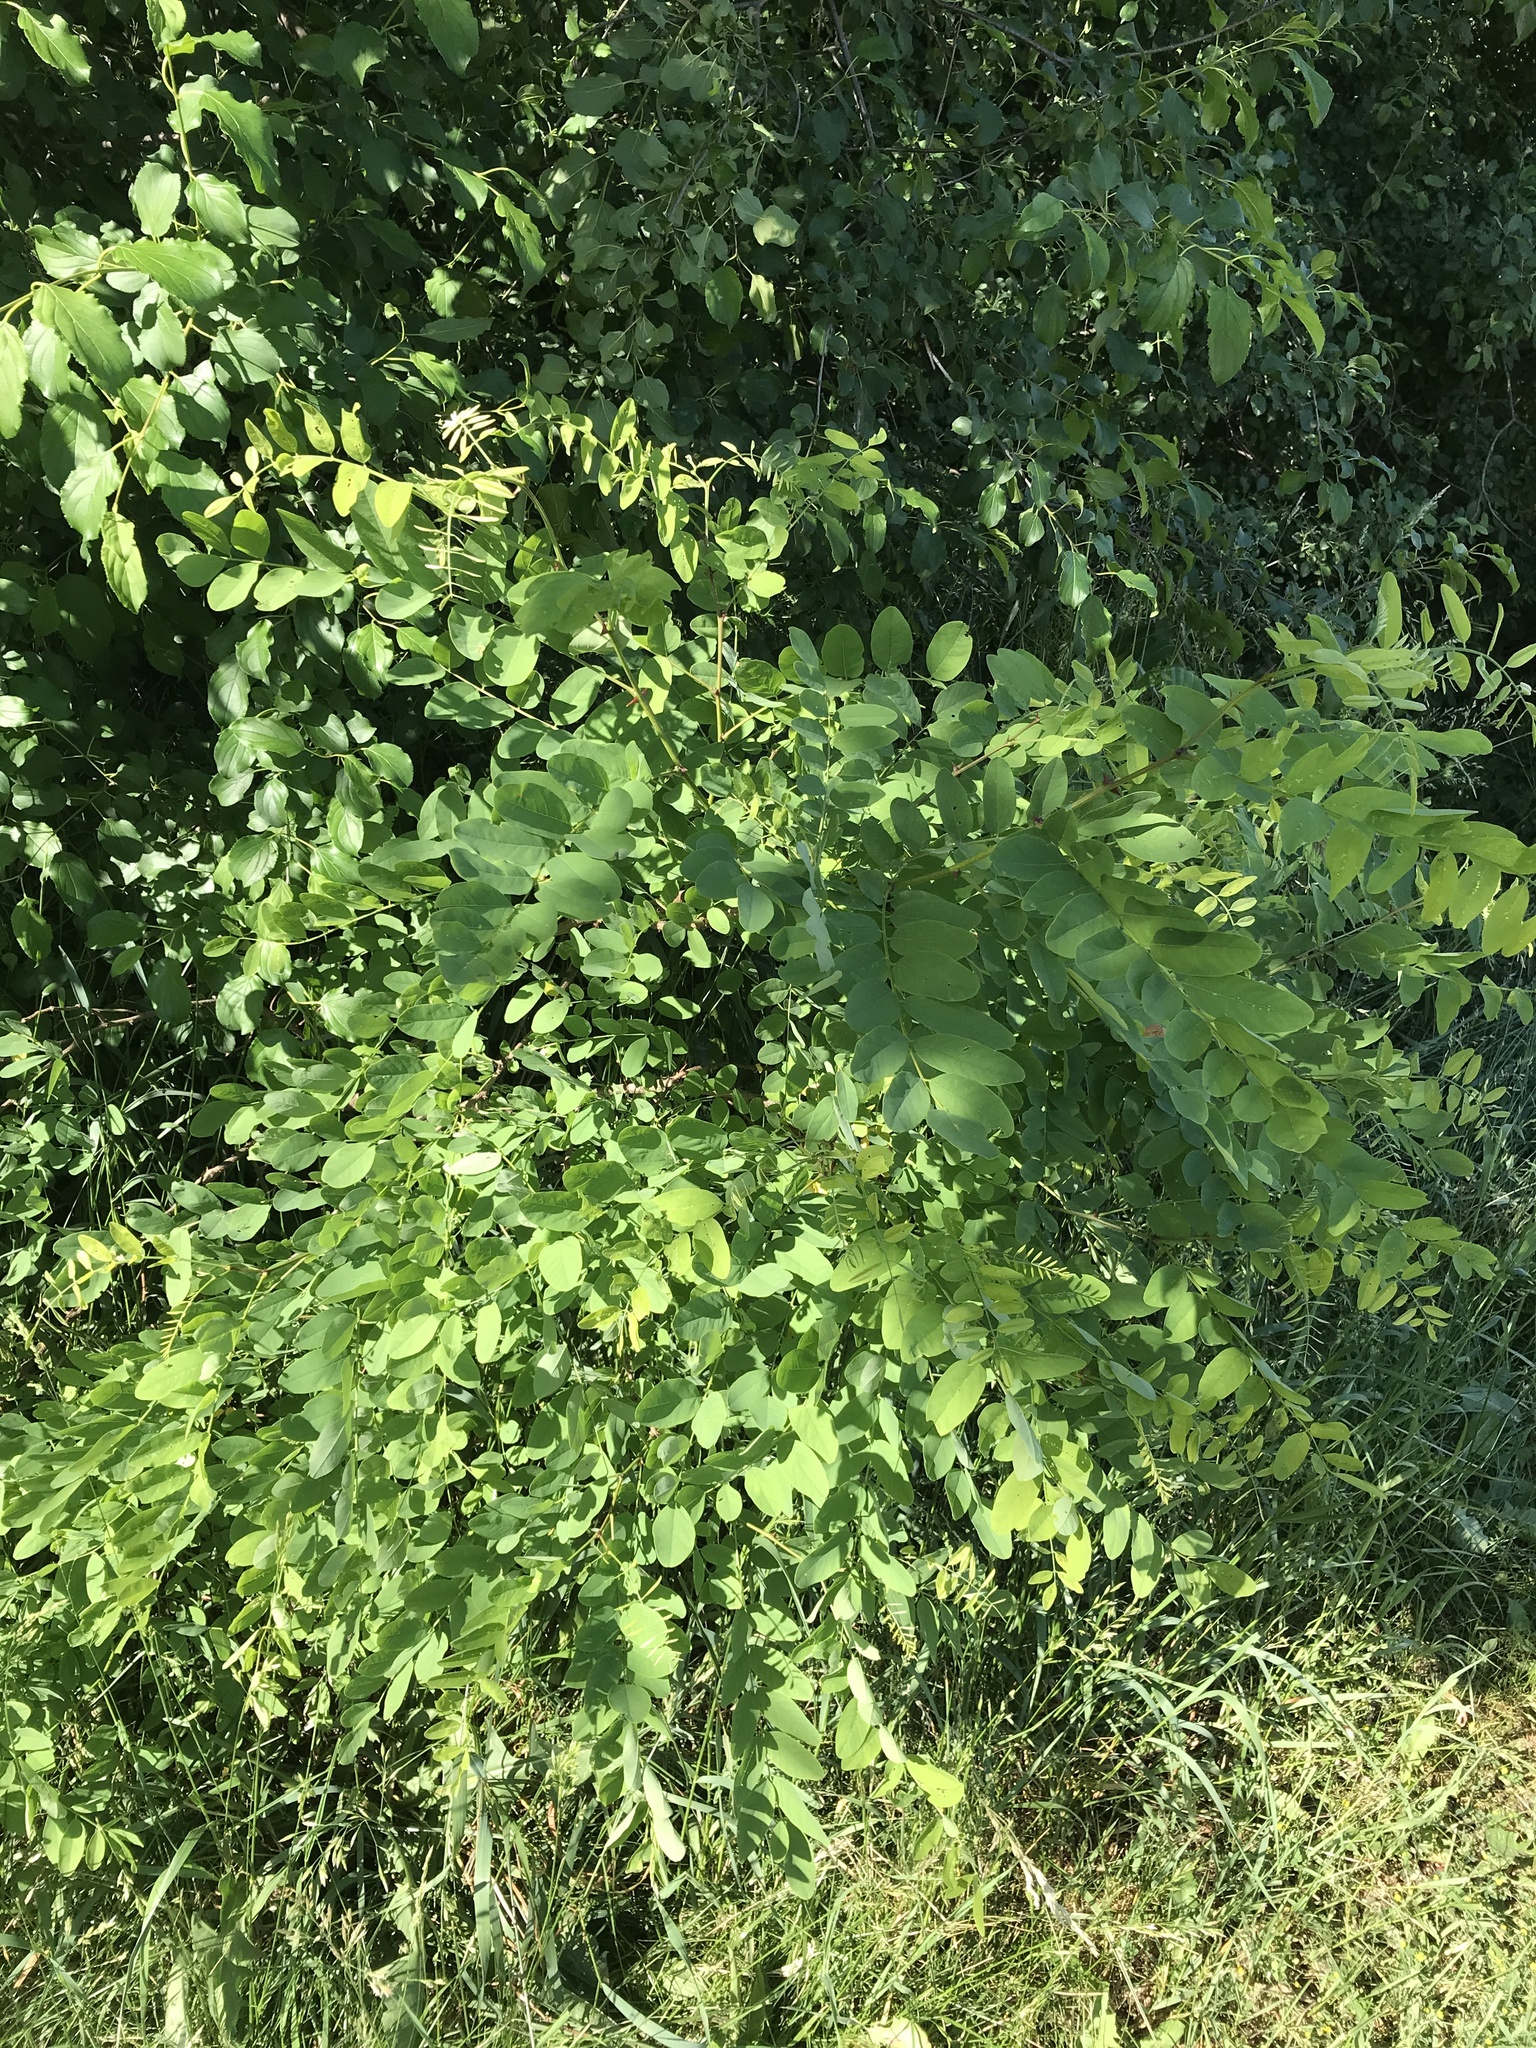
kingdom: Plantae
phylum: Tracheophyta
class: Magnoliopsida
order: Fabales
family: Fabaceae
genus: Robinia
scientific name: Robinia pseudoacacia
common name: Black locust
